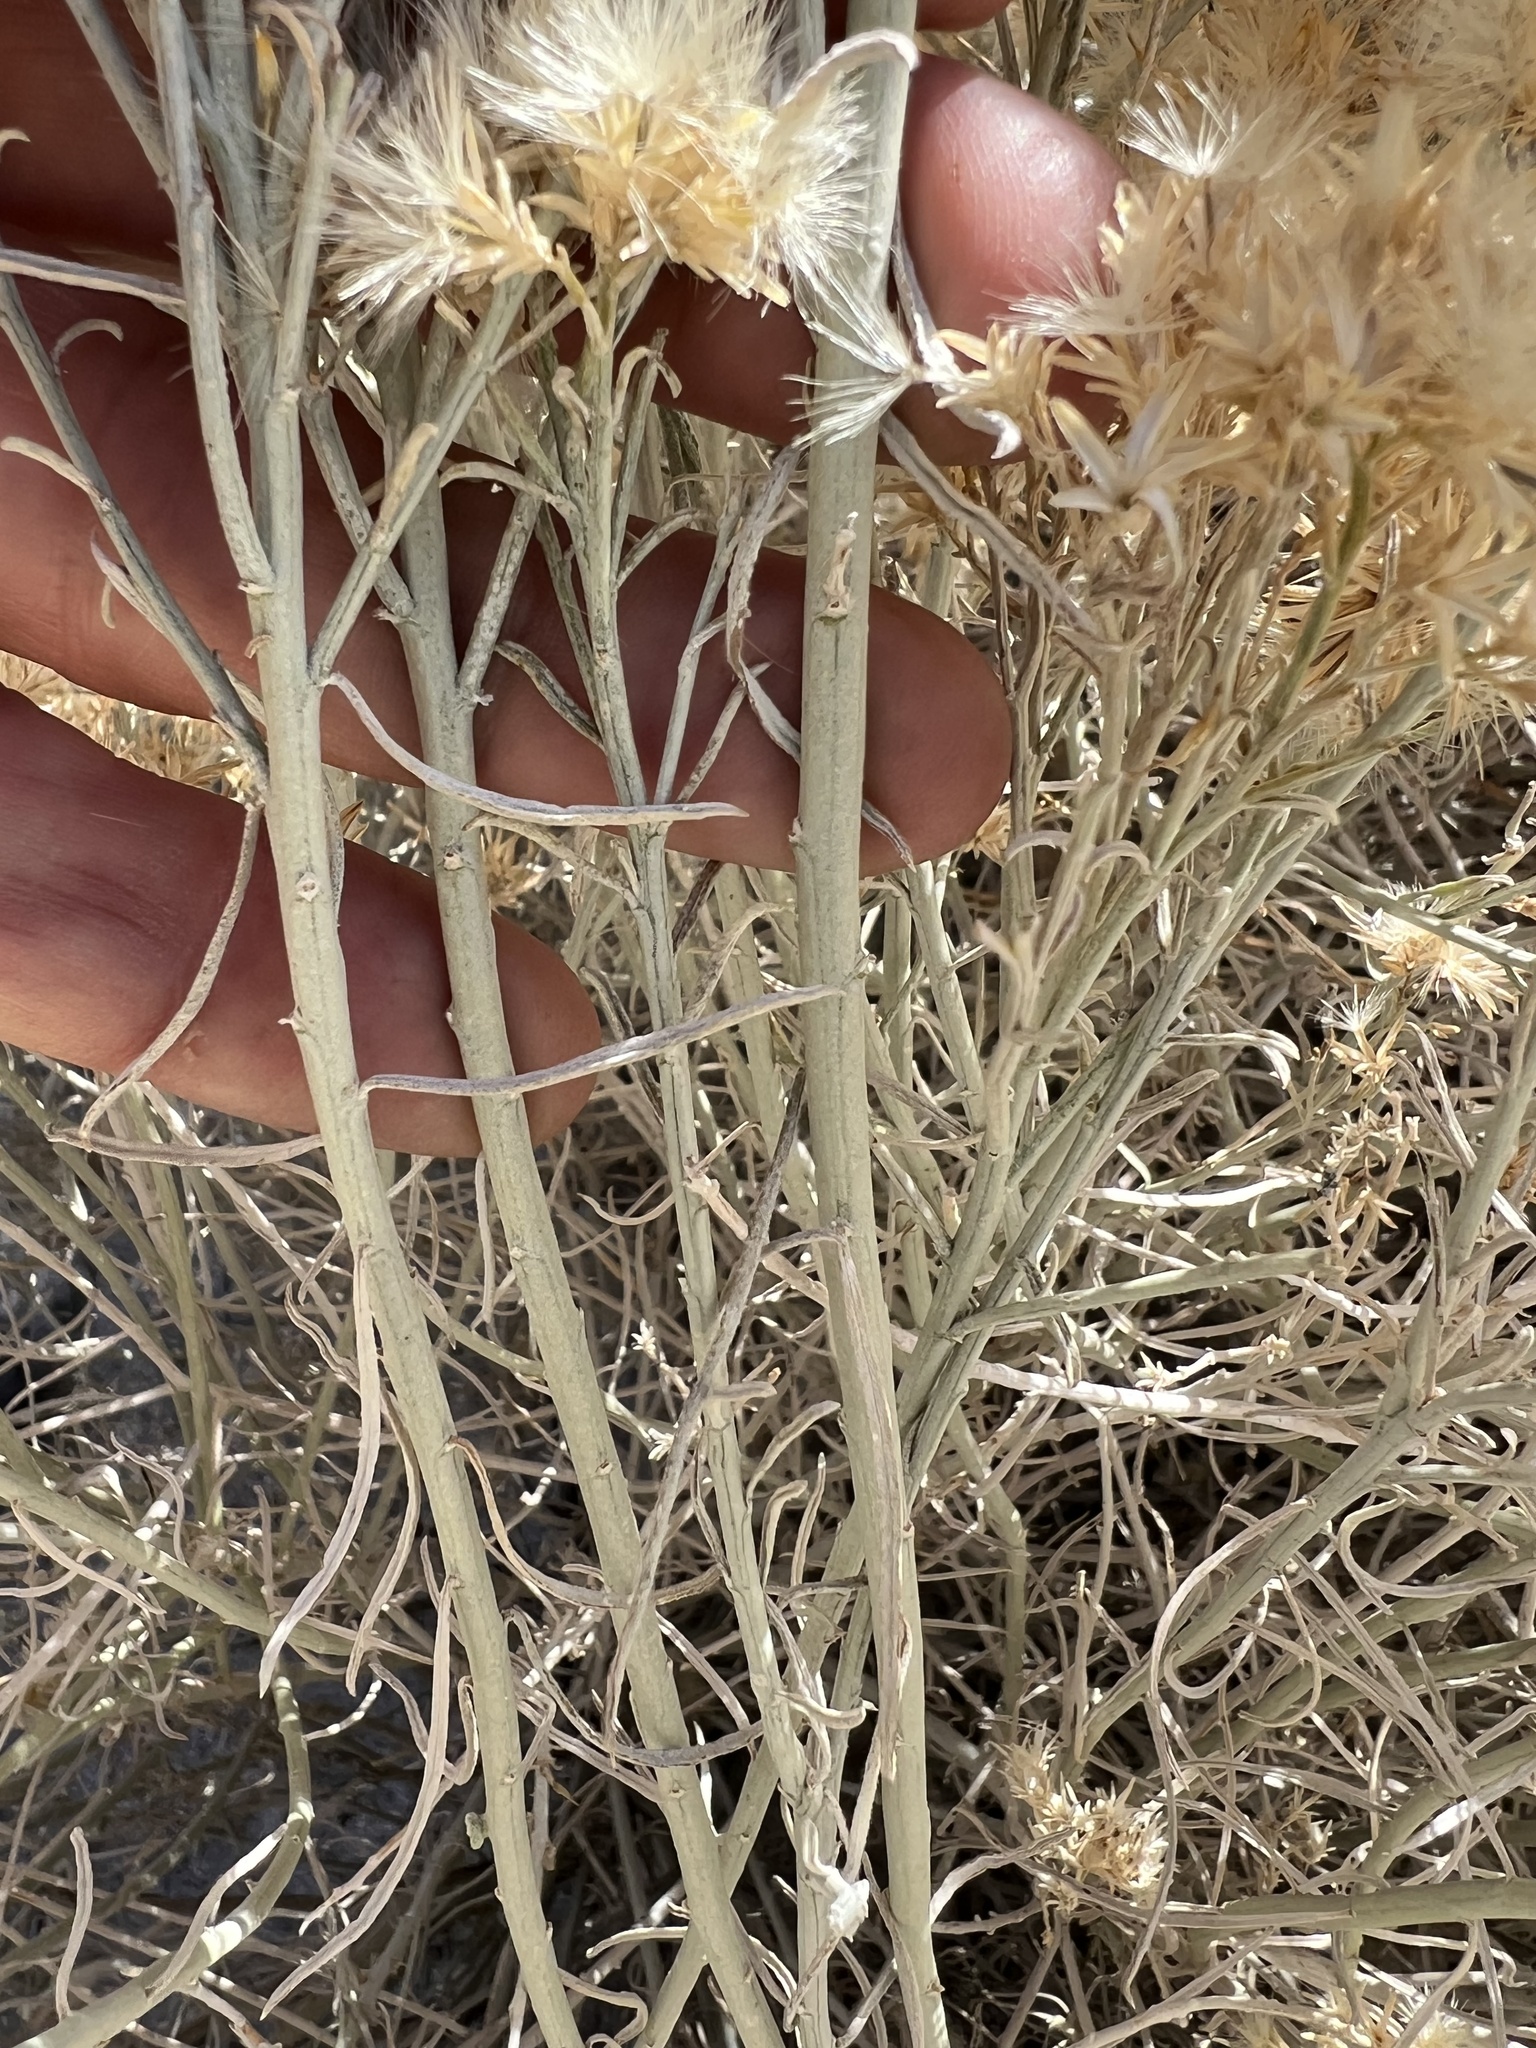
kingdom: Plantae
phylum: Tracheophyta
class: Magnoliopsida
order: Asterales
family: Asteraceae
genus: Ericameria
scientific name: Ericameria nauseosa
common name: Rubber rabbitbrush
